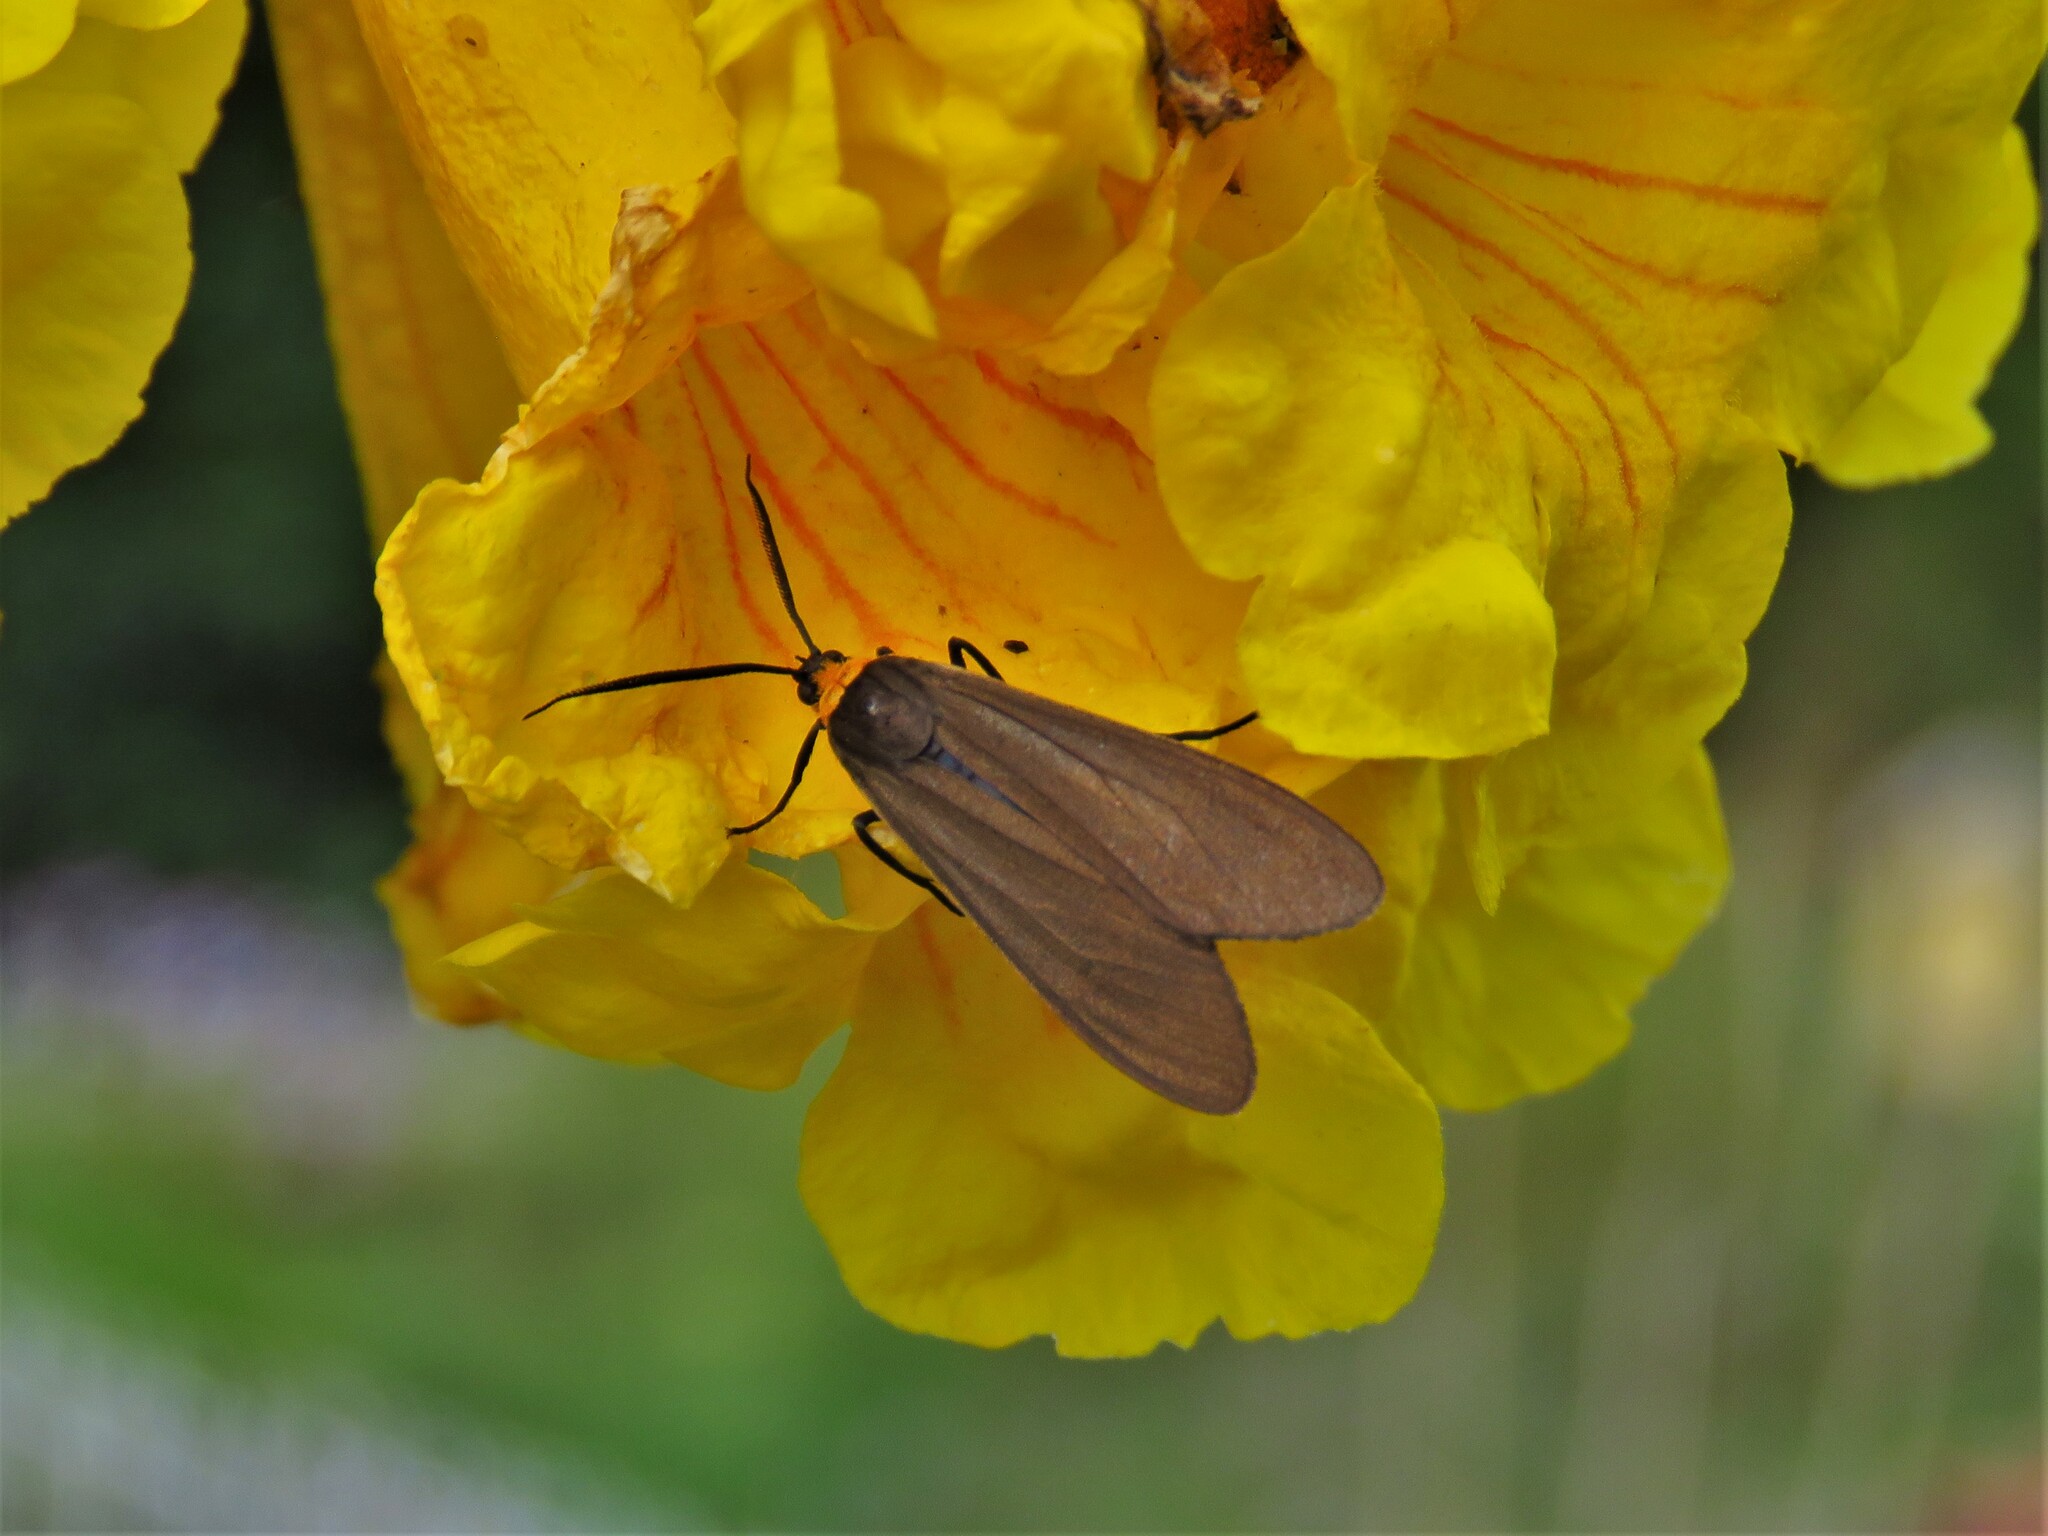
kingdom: Animalia
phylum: Arthropoda
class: Insecta
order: Lepidoptera
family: Erebidae
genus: Cisseps
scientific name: Cisseps fulvicollis
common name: Yellow-collared scape moth
